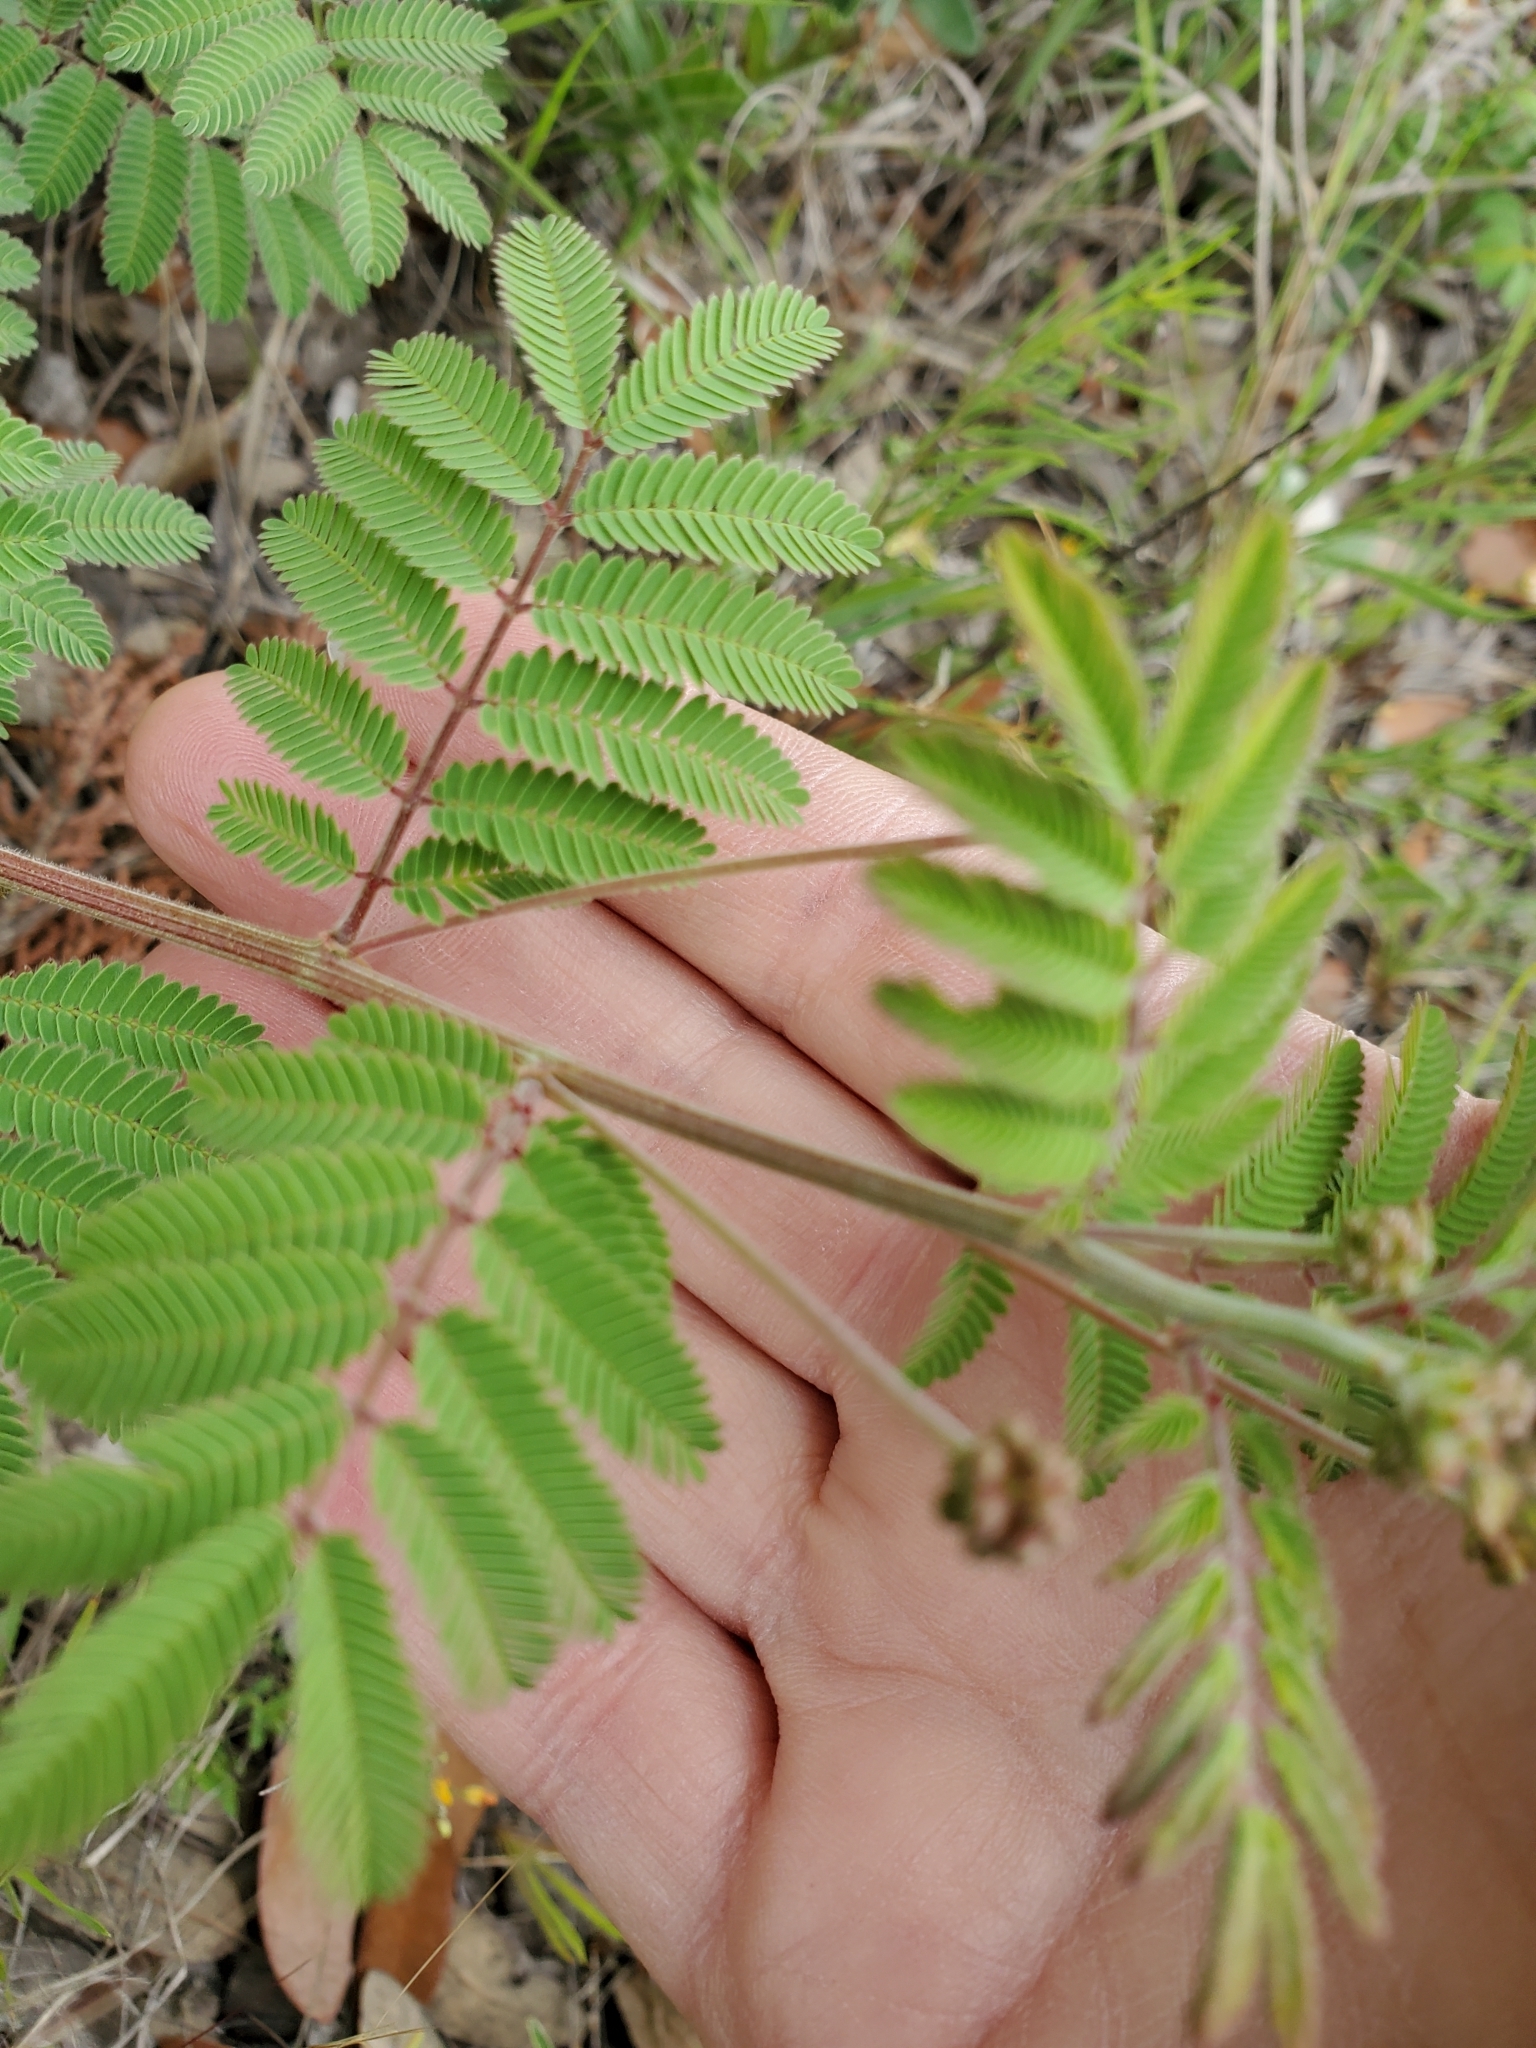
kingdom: Plantae
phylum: Tracheophyta
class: Magnoliopsida
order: Fabales
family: Fabaceae
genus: Desmanthus
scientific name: Desmanthus velutinus
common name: Velvet bundle-flower
